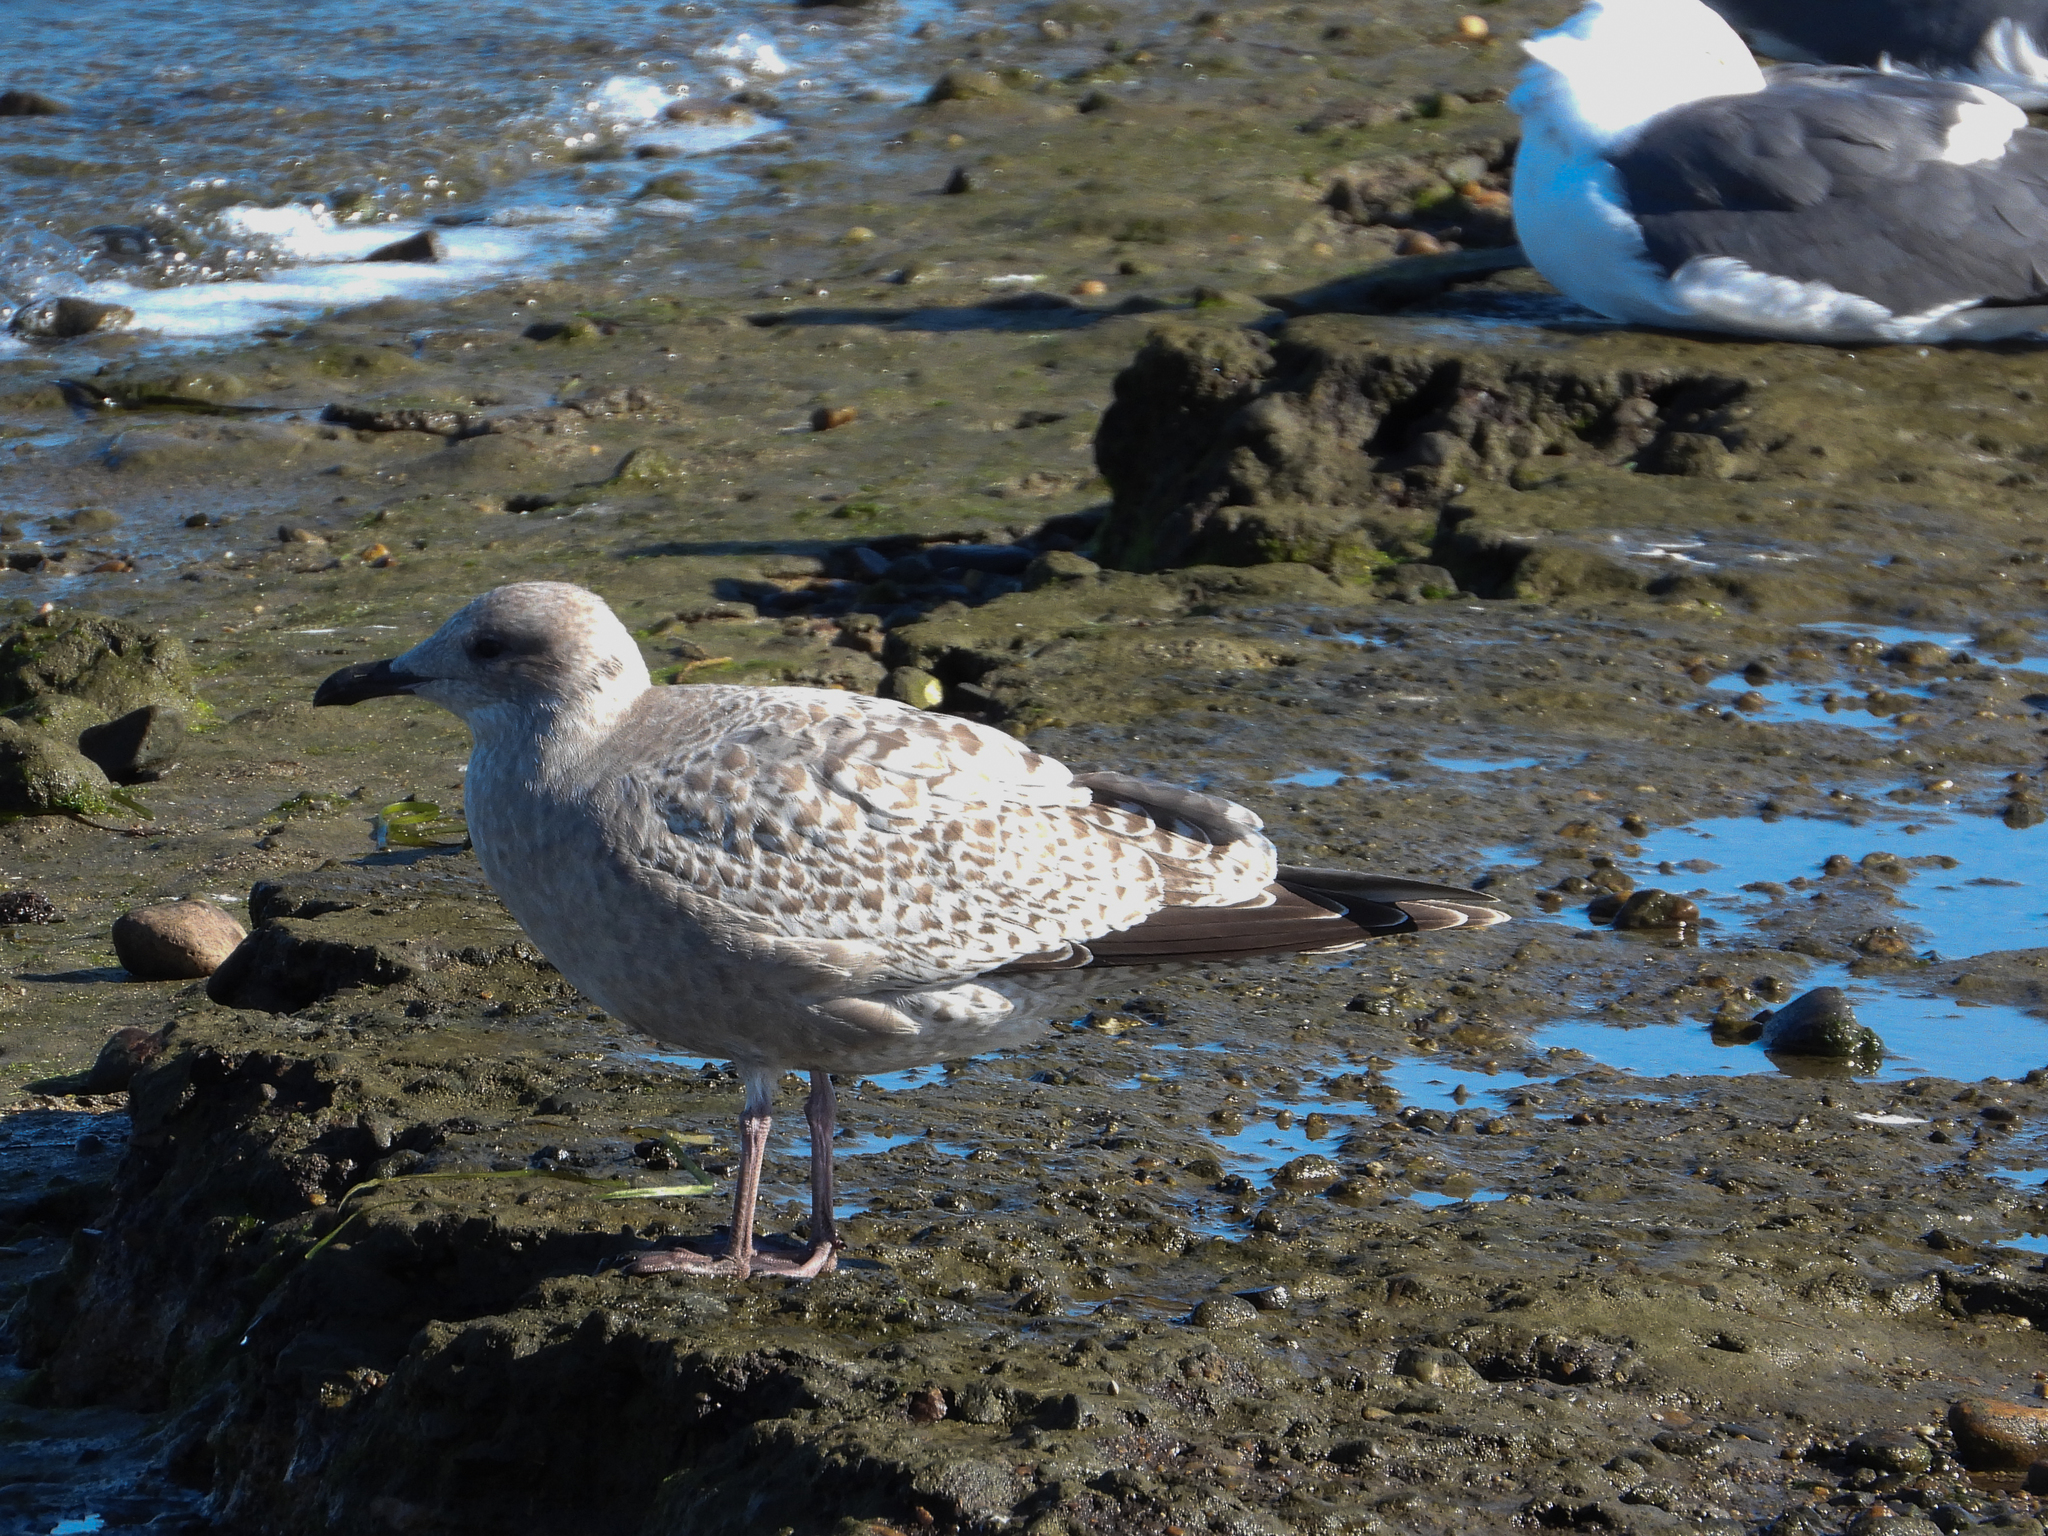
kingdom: Animalia
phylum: Chordata
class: Aves
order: Charadriiformes
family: Laridae
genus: Larus
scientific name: Larus glaucoides
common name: Iceland gull
